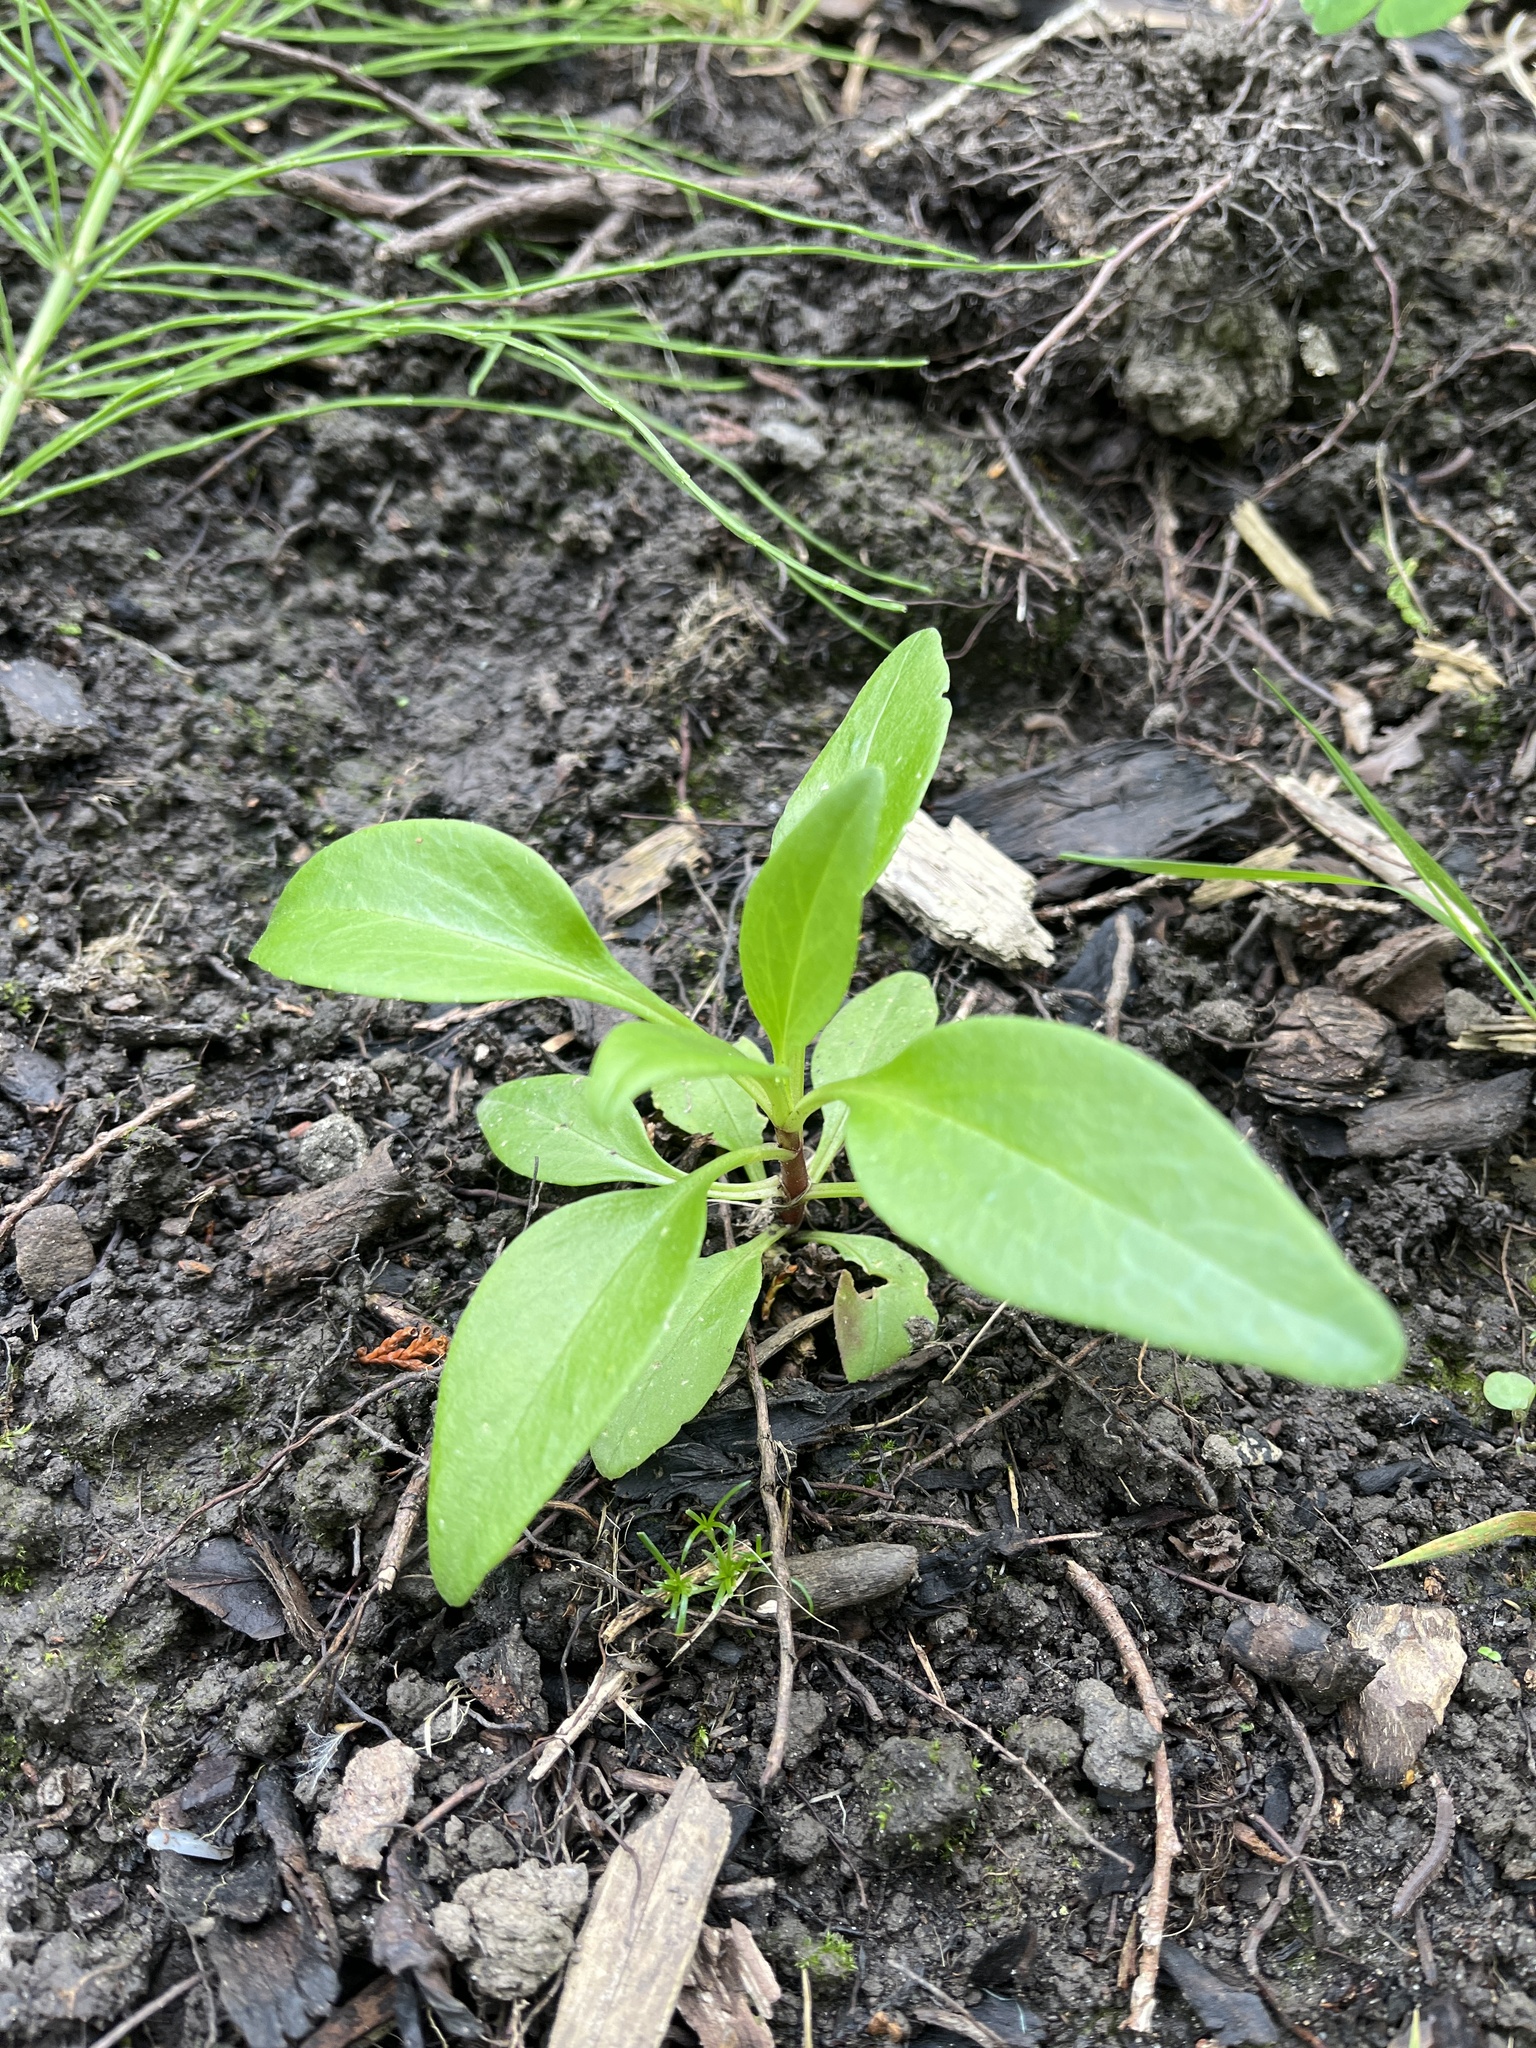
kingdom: Plantae
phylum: Tracheophyta
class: Magnoliopsida
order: Dipsacales
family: Caprifoliaceae
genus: Centranthus
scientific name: Centranthus ruber
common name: Red valerian
